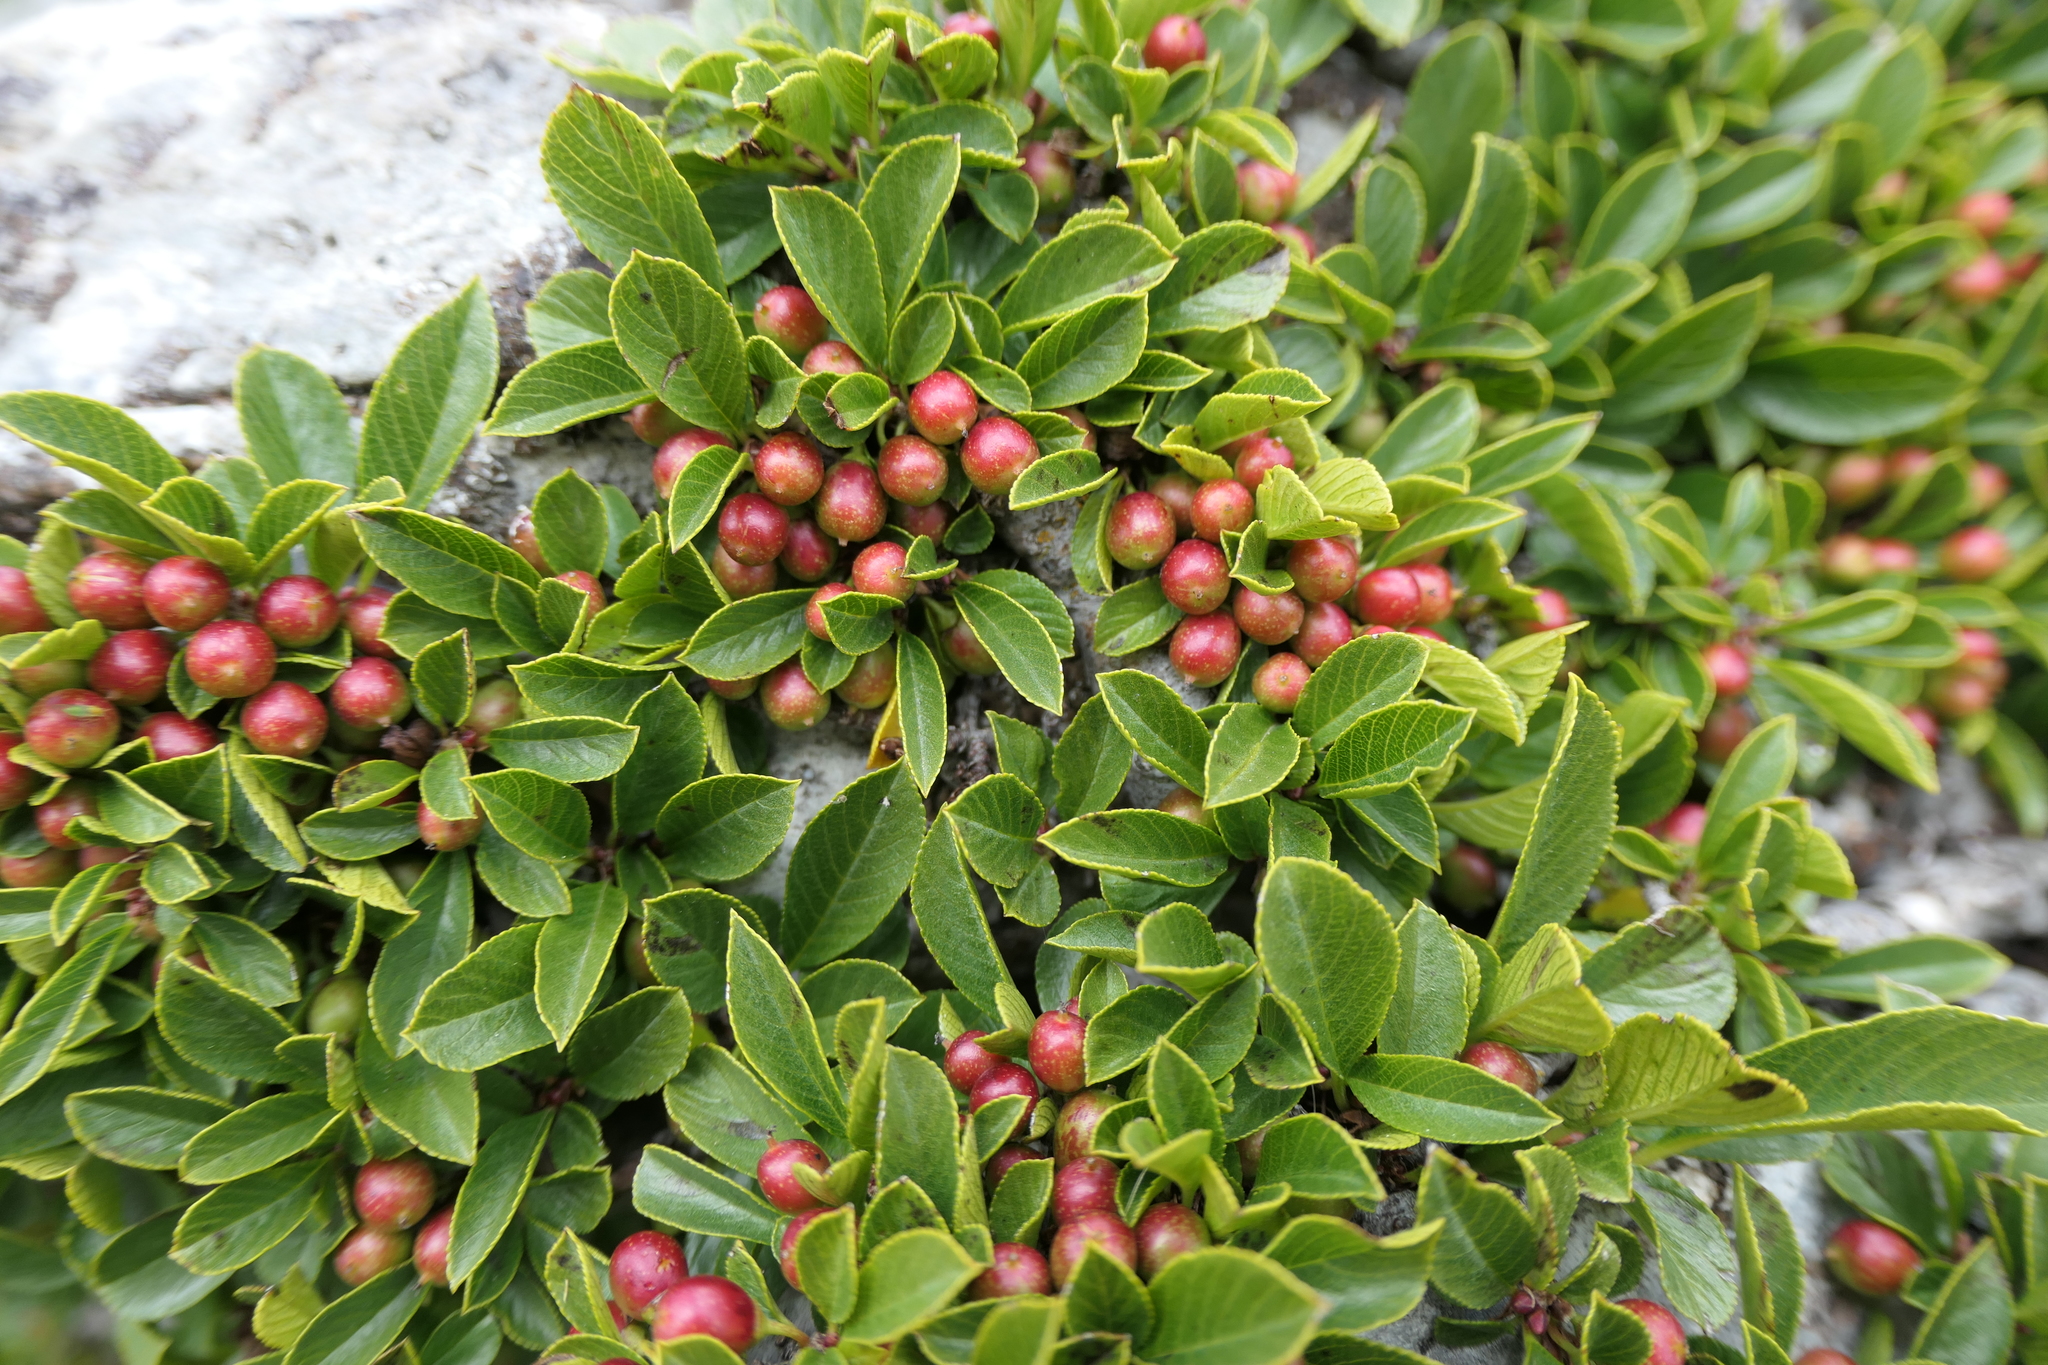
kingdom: Plantae
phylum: Tracheophyta
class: Magnoliopsida
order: Rosales
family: Rhamnaceae
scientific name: Rhamnaceae
